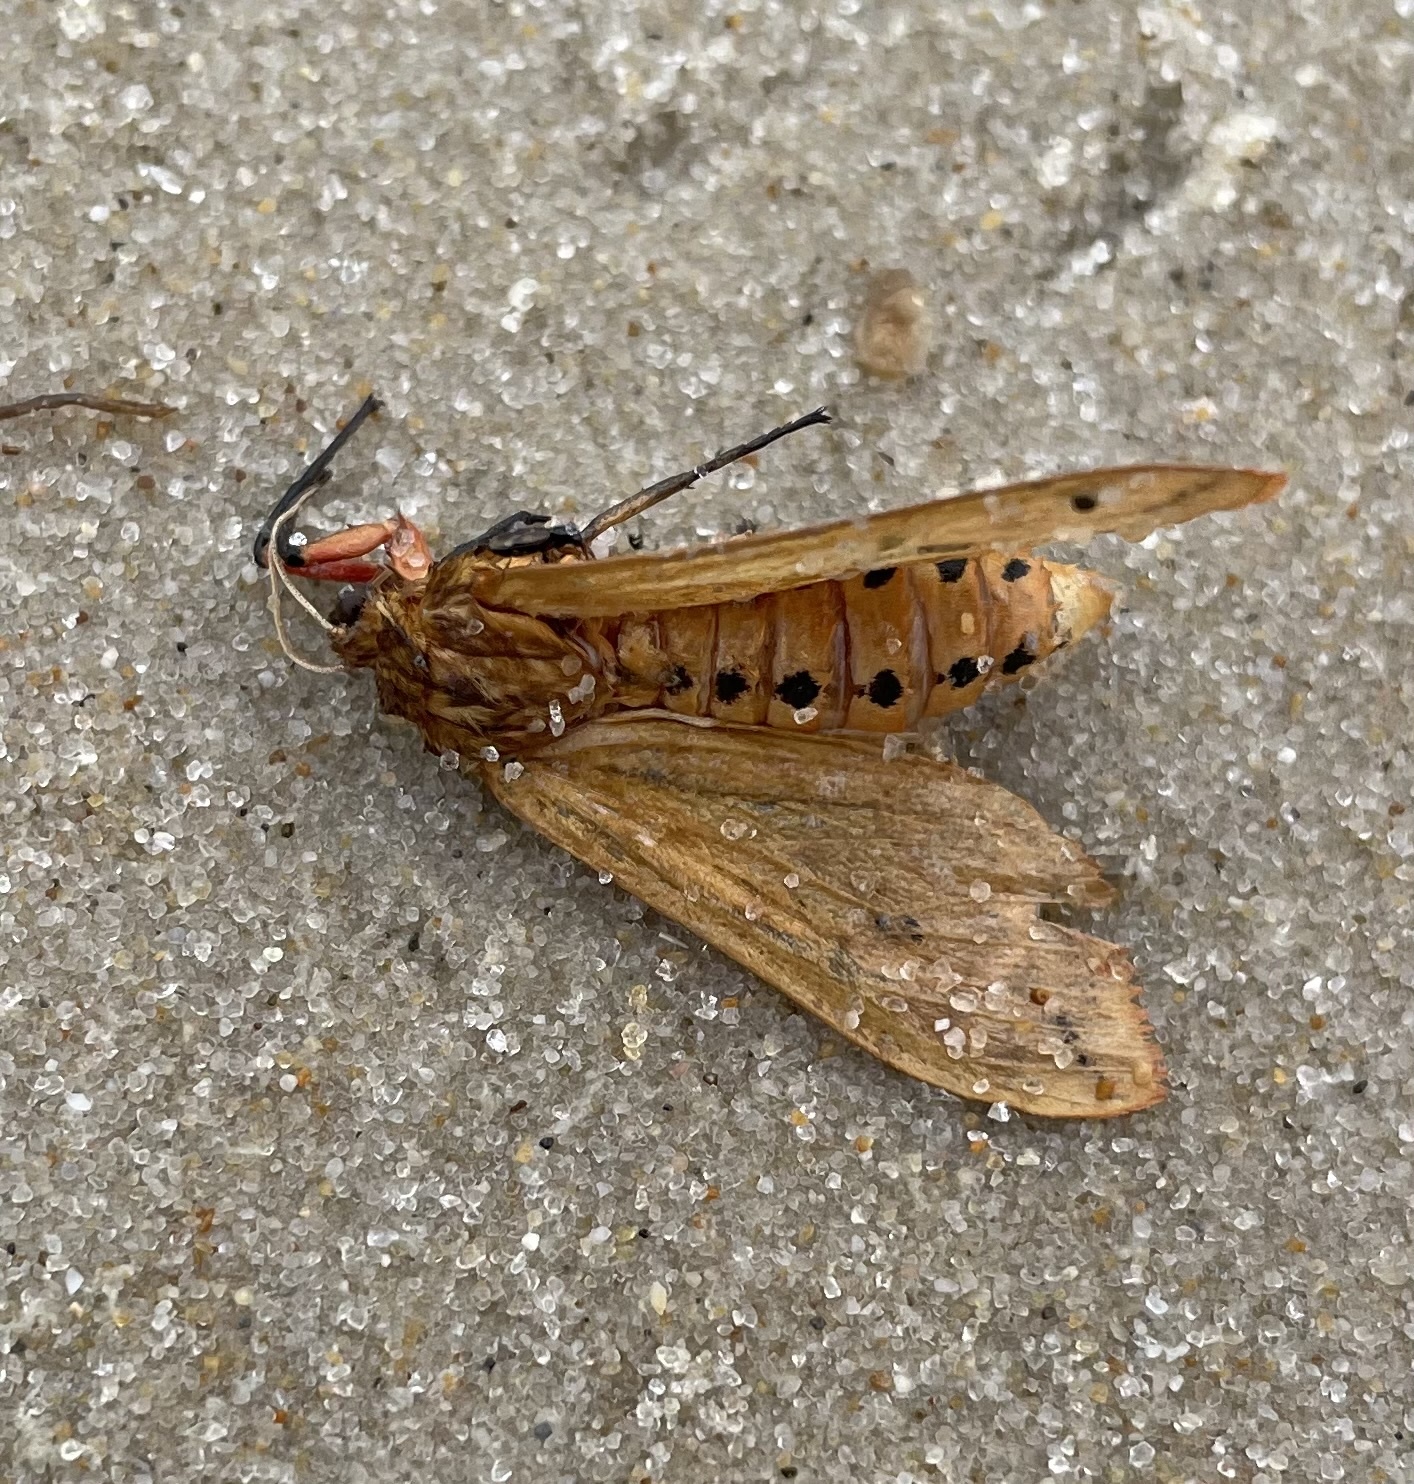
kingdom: Animalia
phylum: Arthropoda
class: Insecta
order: Lepidoptera
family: Erebidae
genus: Pyrrharctia
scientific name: Pyrrharctia isabella
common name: Isabella tiger moth
